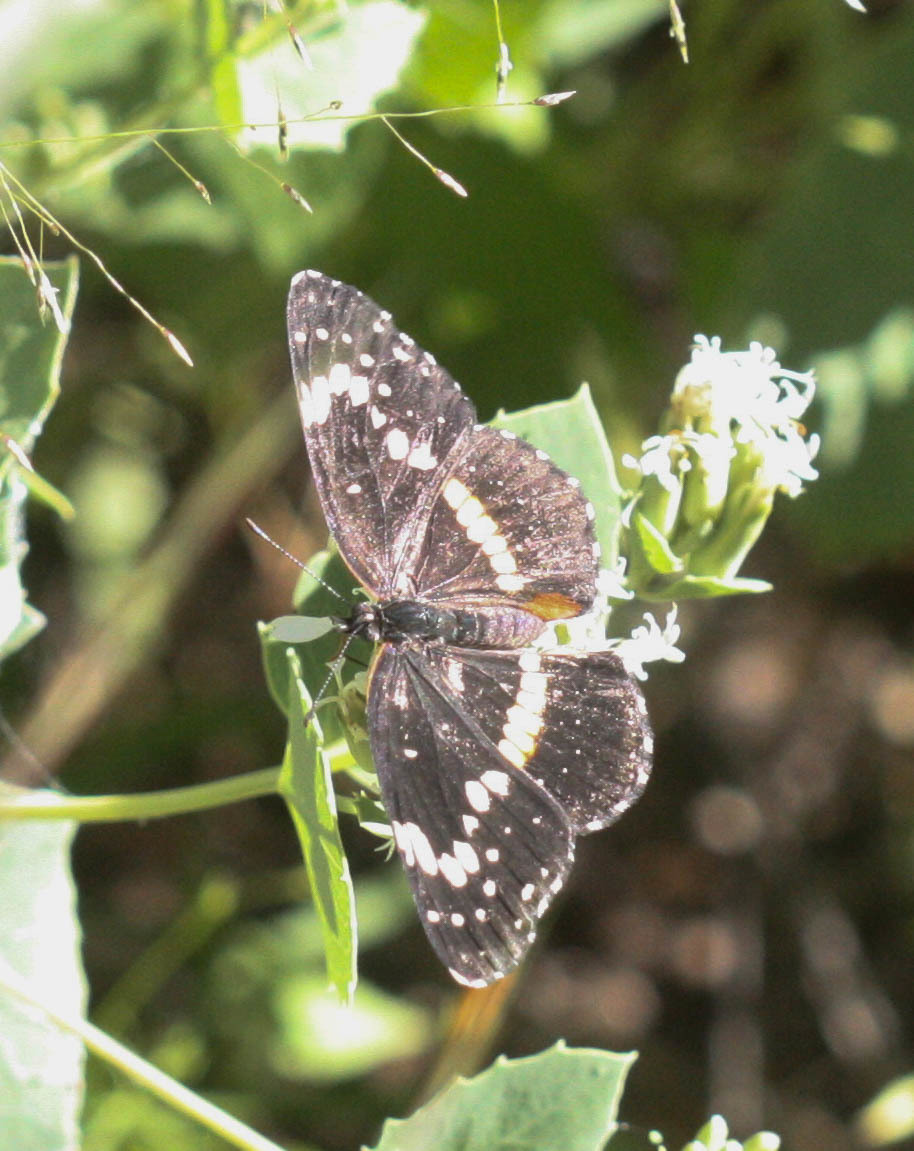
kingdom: Animalia
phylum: Arthropoda
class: Insecta
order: Lepidoptera
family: Nymphalidae
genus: Chlosyne
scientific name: Chlosyne lacinia
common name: Bordered patch
